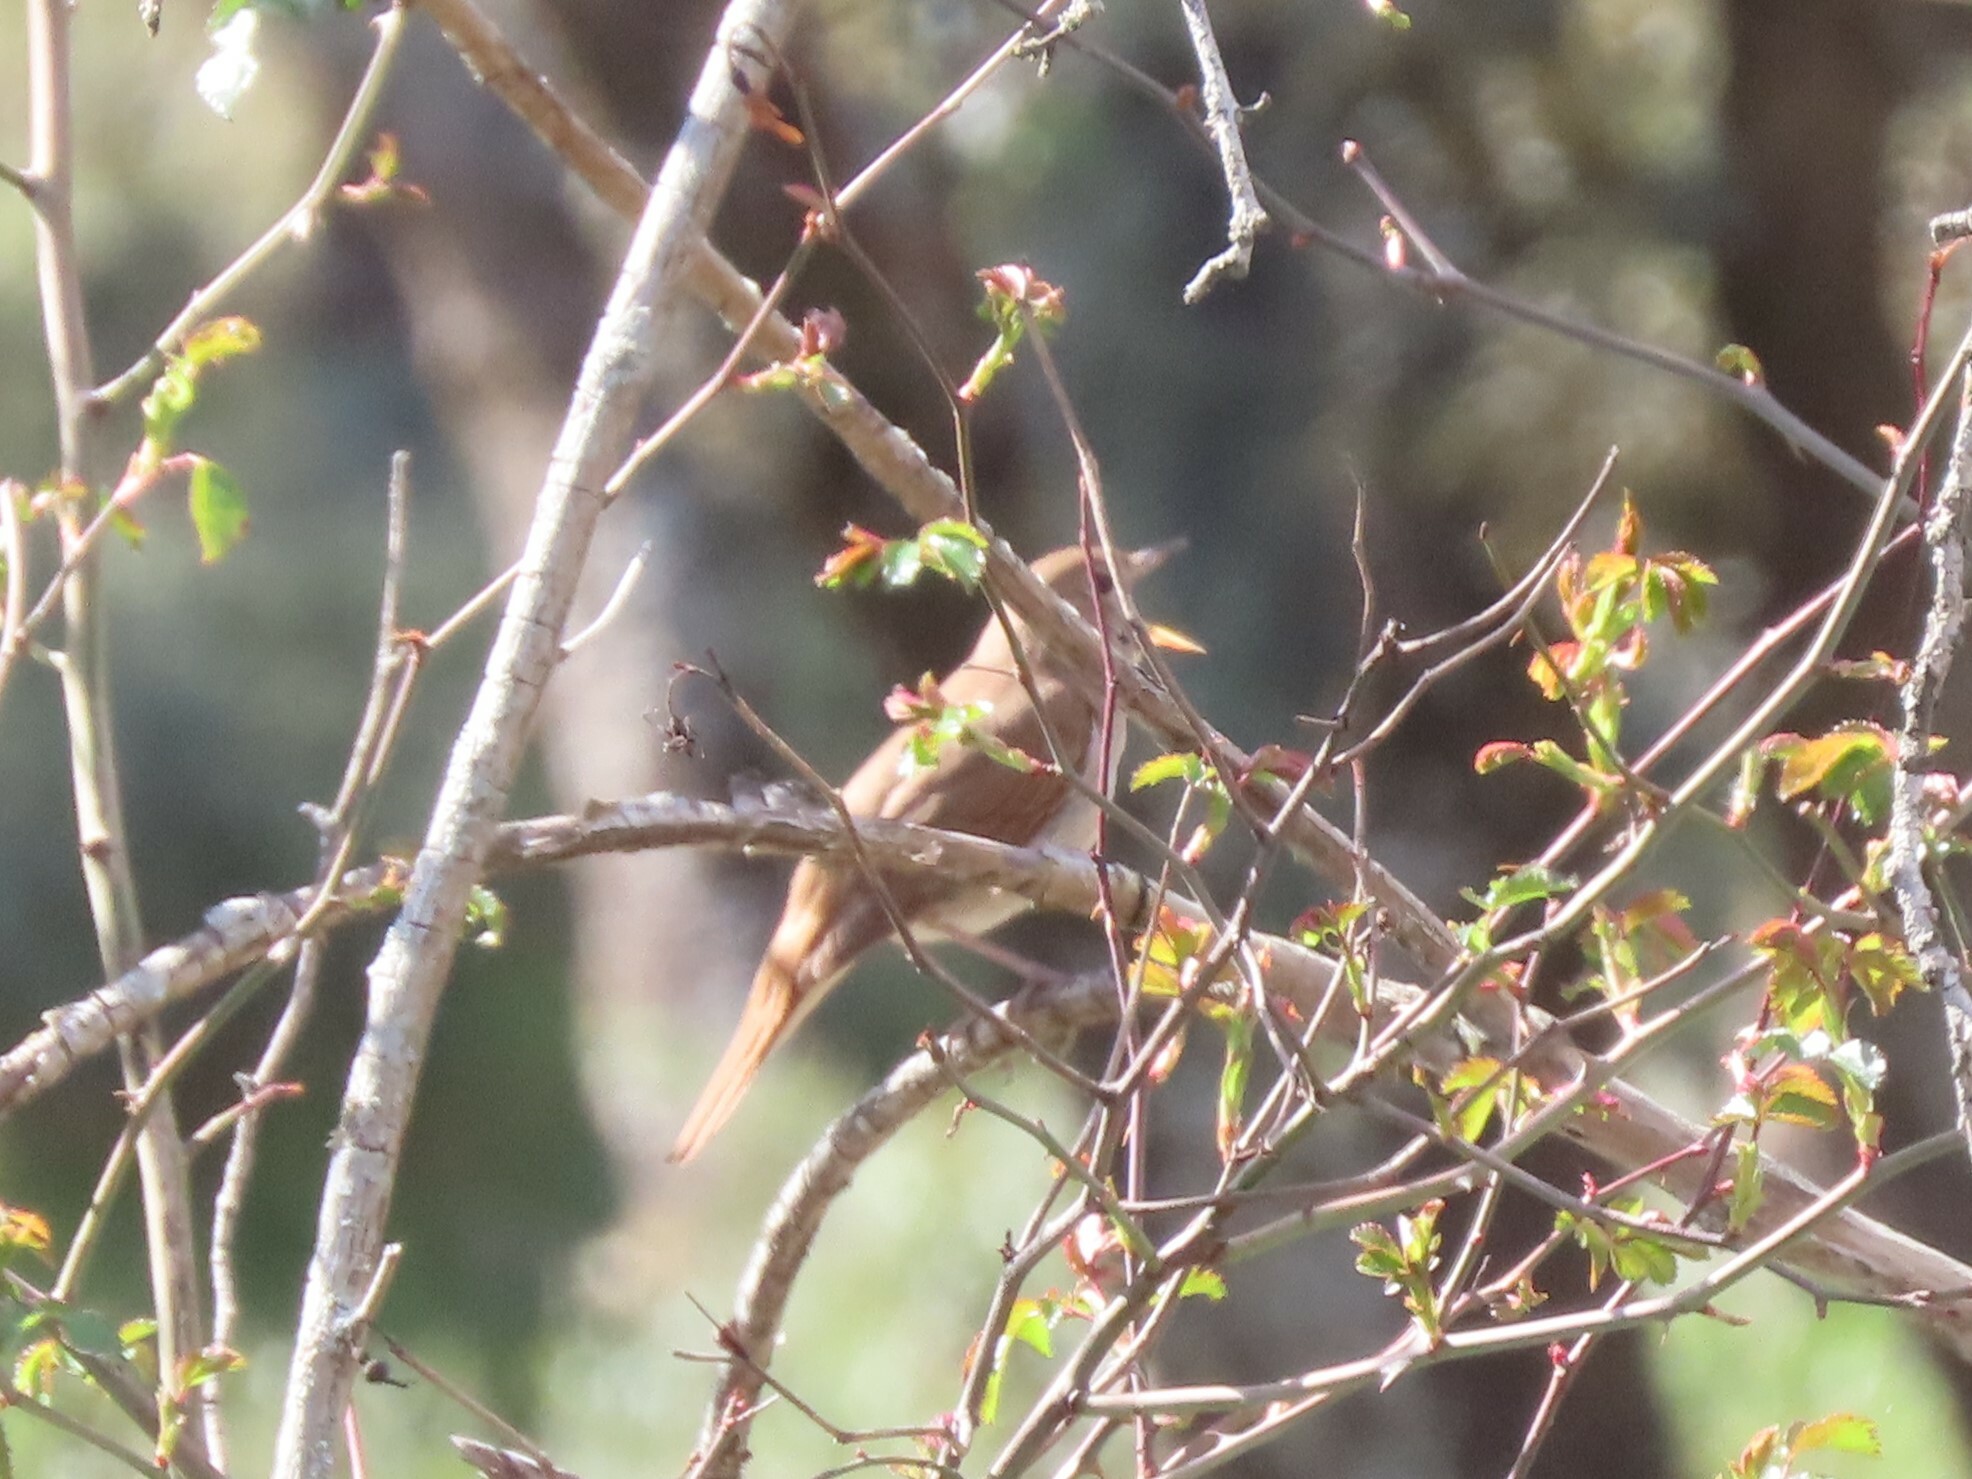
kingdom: Animalia
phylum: Chordata
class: Aves
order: Passeriformes
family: Muscicapidae
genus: Luscinia
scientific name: Luscinia megarhynchos
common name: Common nightingale
